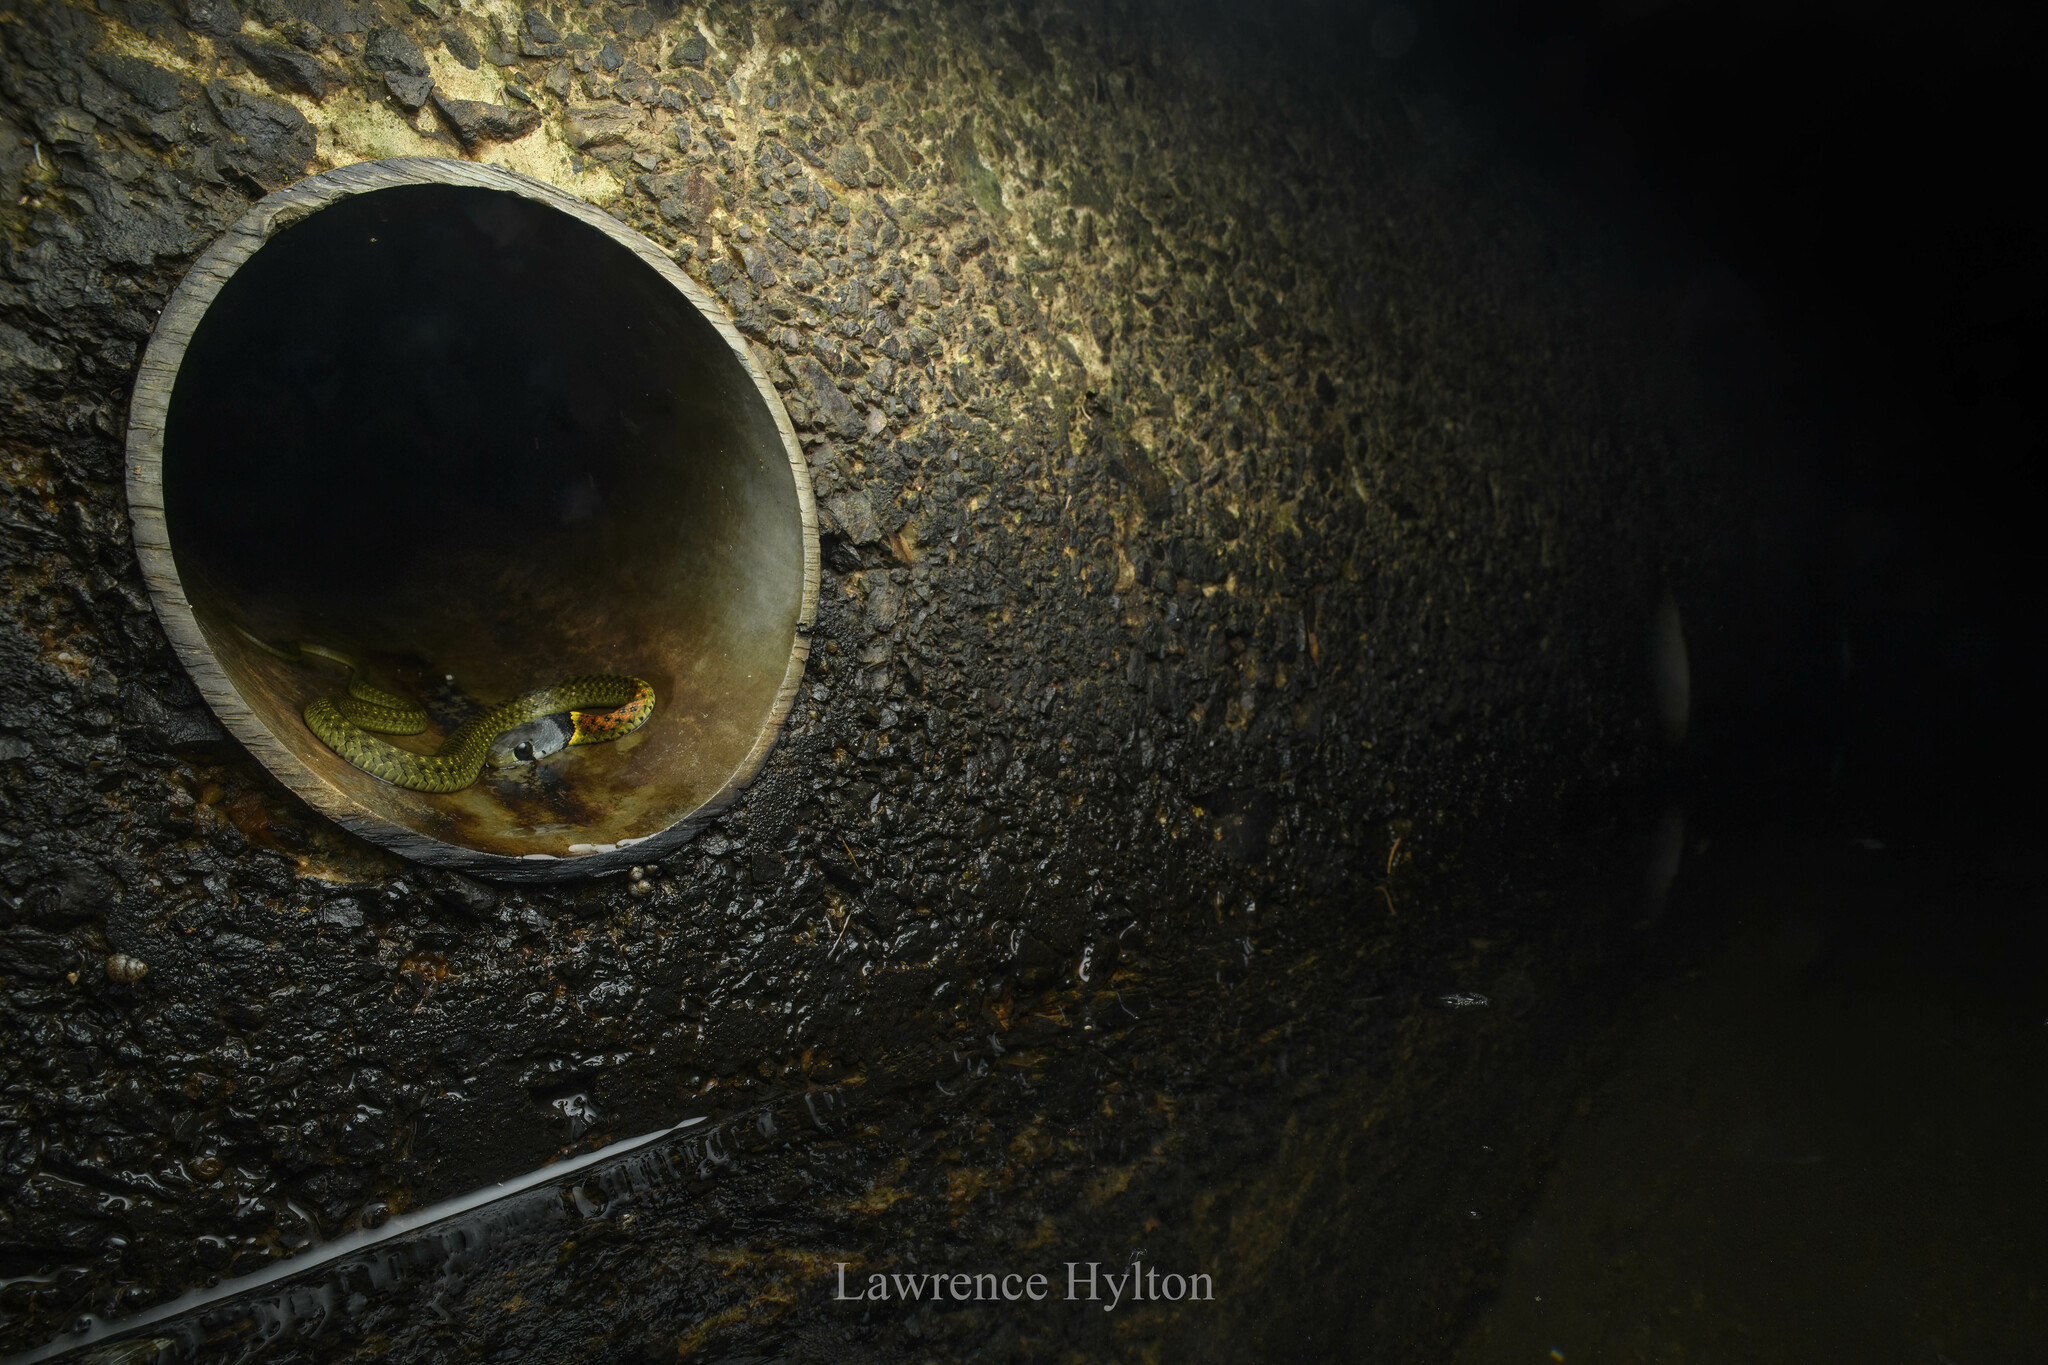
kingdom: Animalia
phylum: Chordata
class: Squamata
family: Colubridae
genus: Rhabdophis
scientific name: Rhabdophis helleri
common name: Heller’s red-necked keelback
